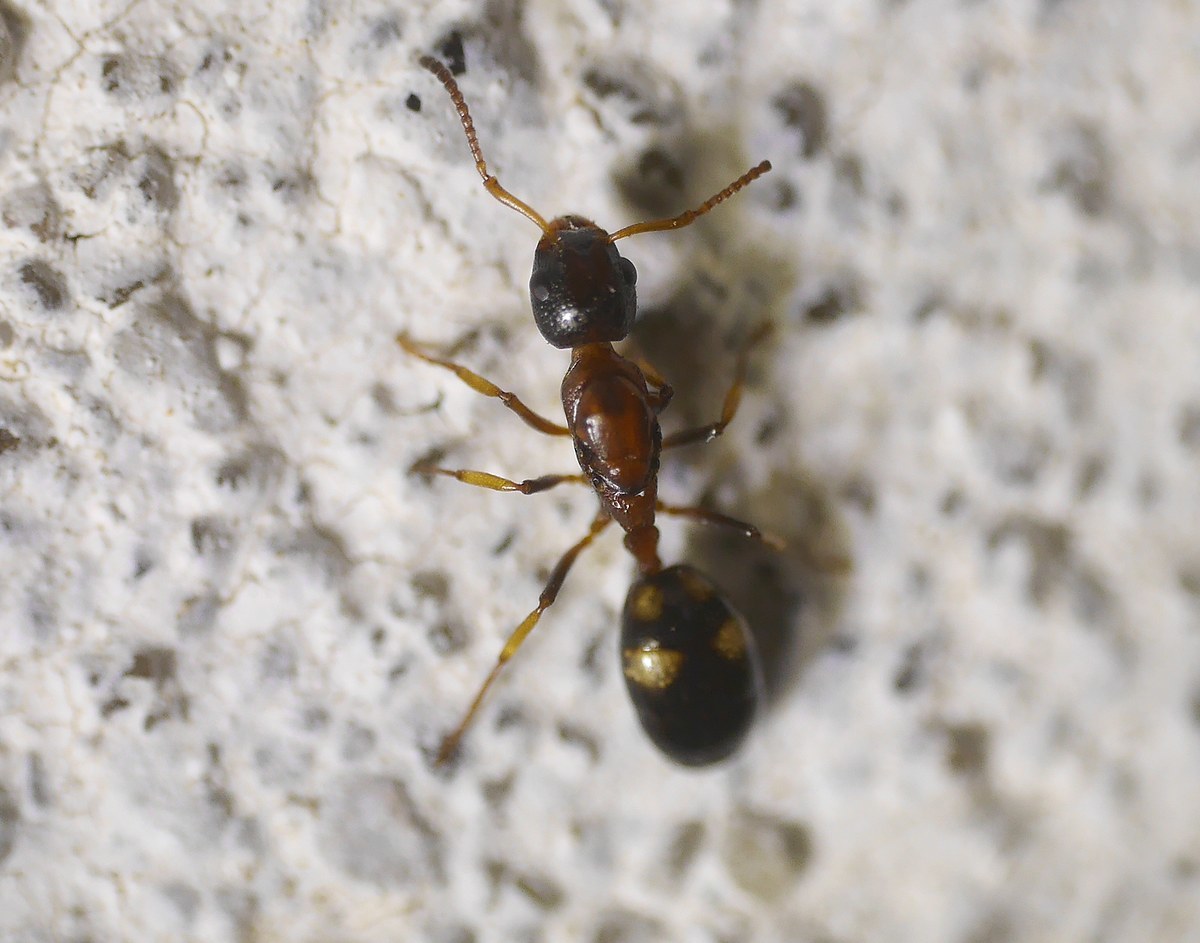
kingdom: Animalia
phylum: Arthropoda
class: Insecta
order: Hymenoptera
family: Formicidae
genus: Dolichoderus
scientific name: Dolichoderus quadripunctatus
